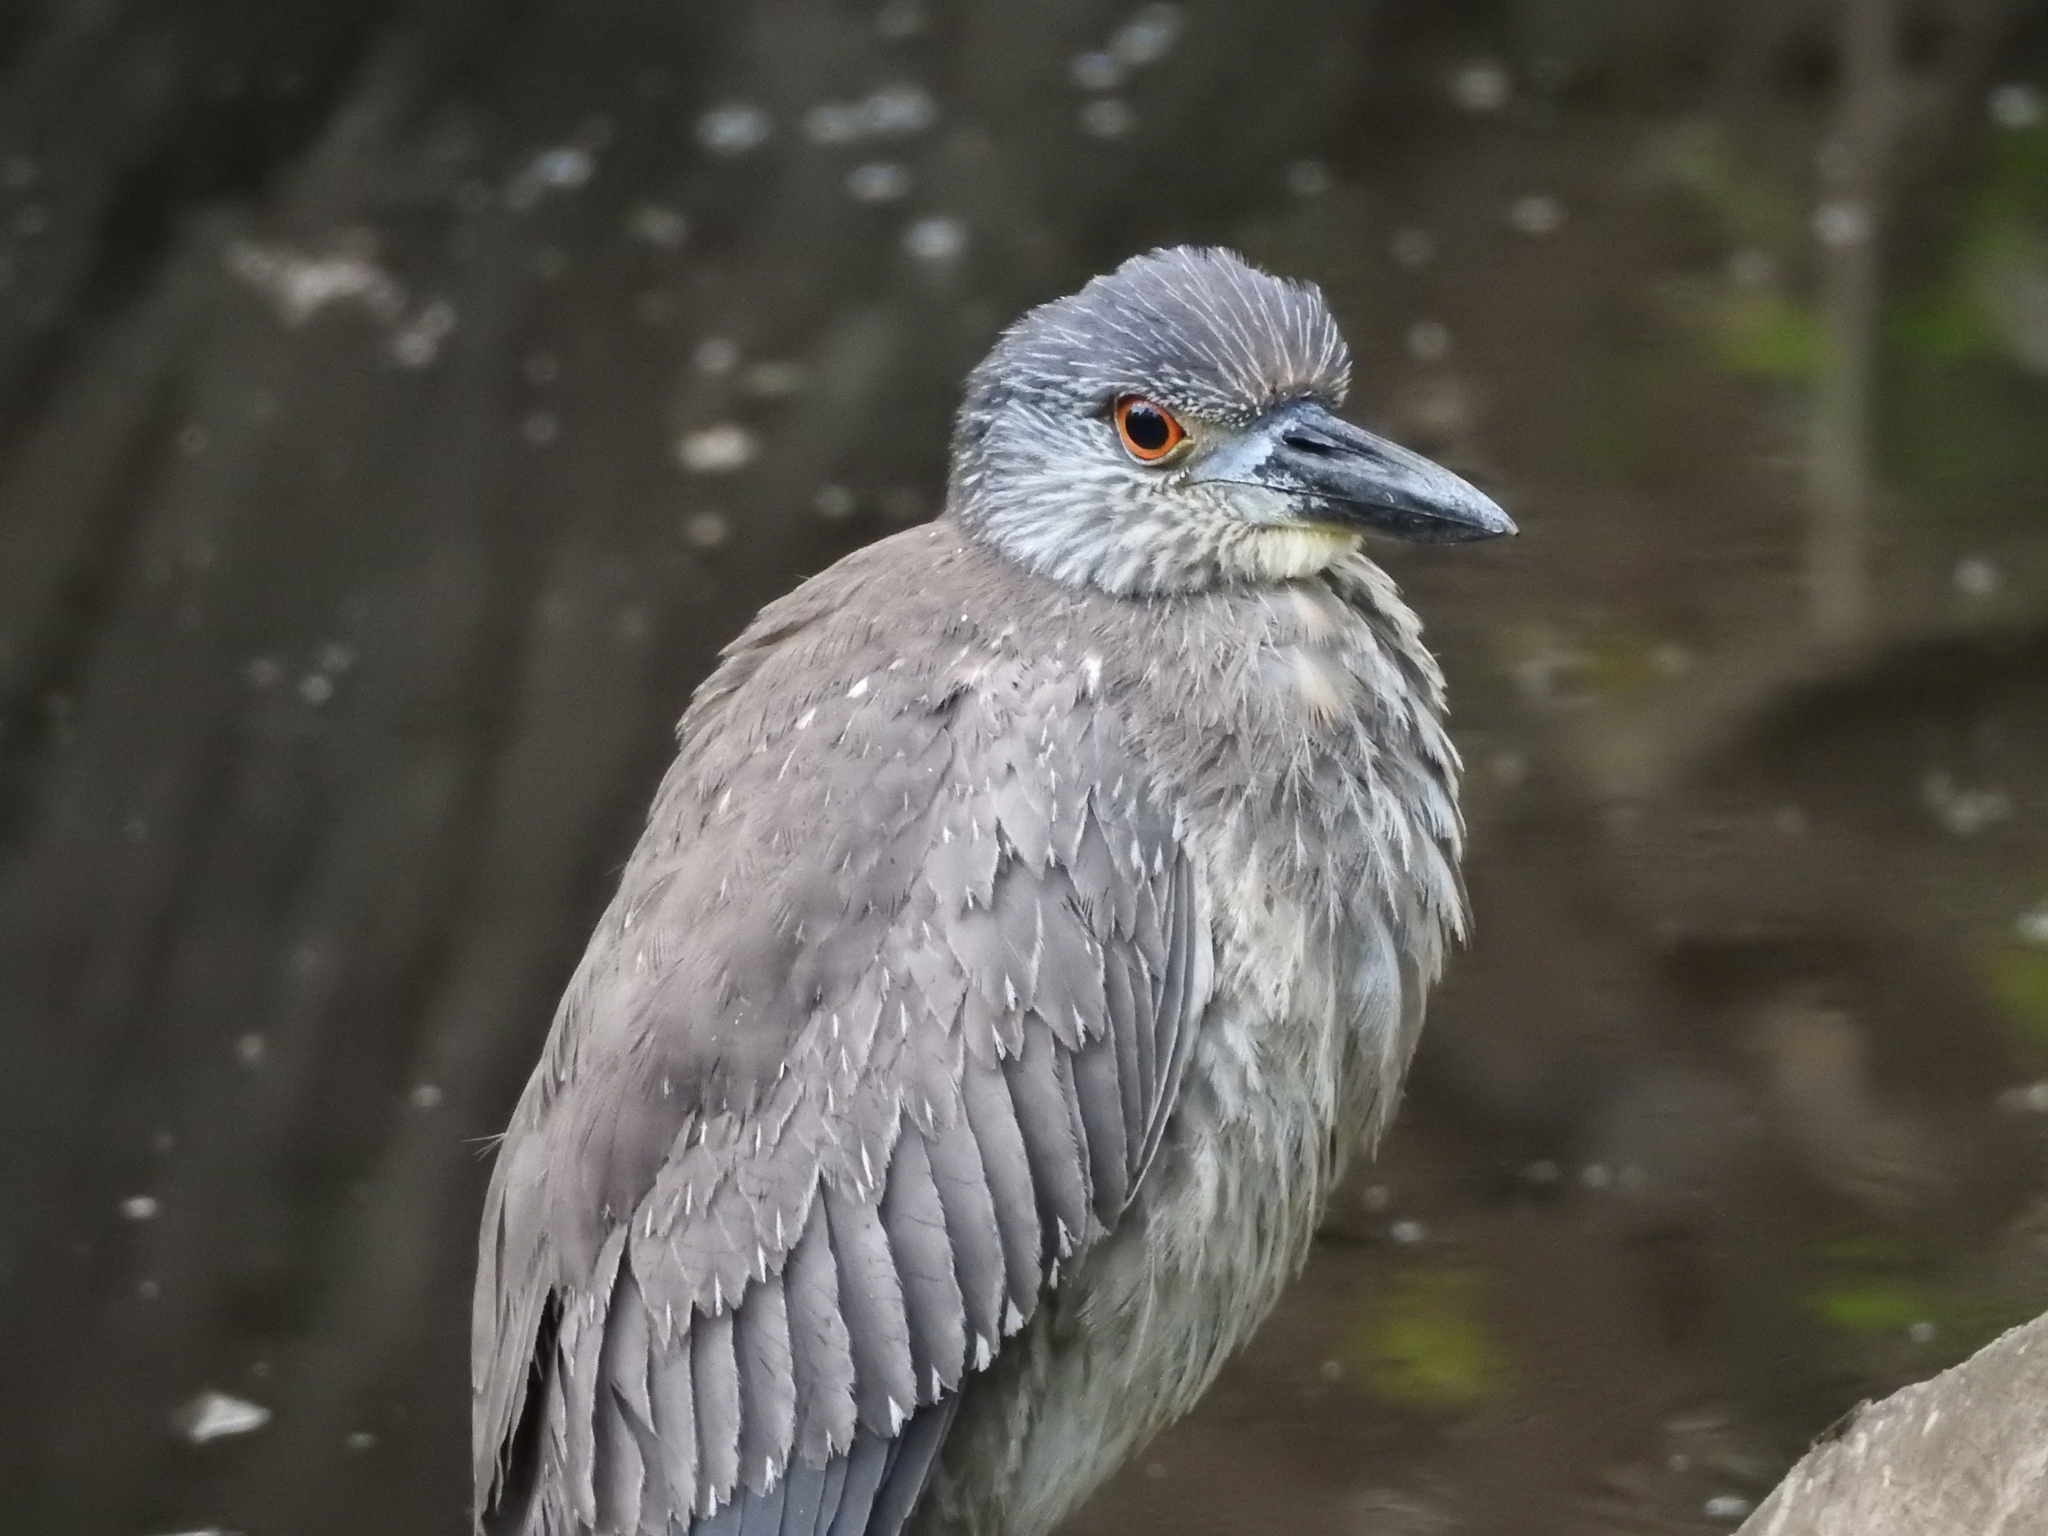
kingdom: Animalia
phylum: Chordata
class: Aves
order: Pelecaniformes
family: Ardeidae
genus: Nyctanassa
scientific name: Nyctanassa violacea
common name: Yellow-crowned night heron
